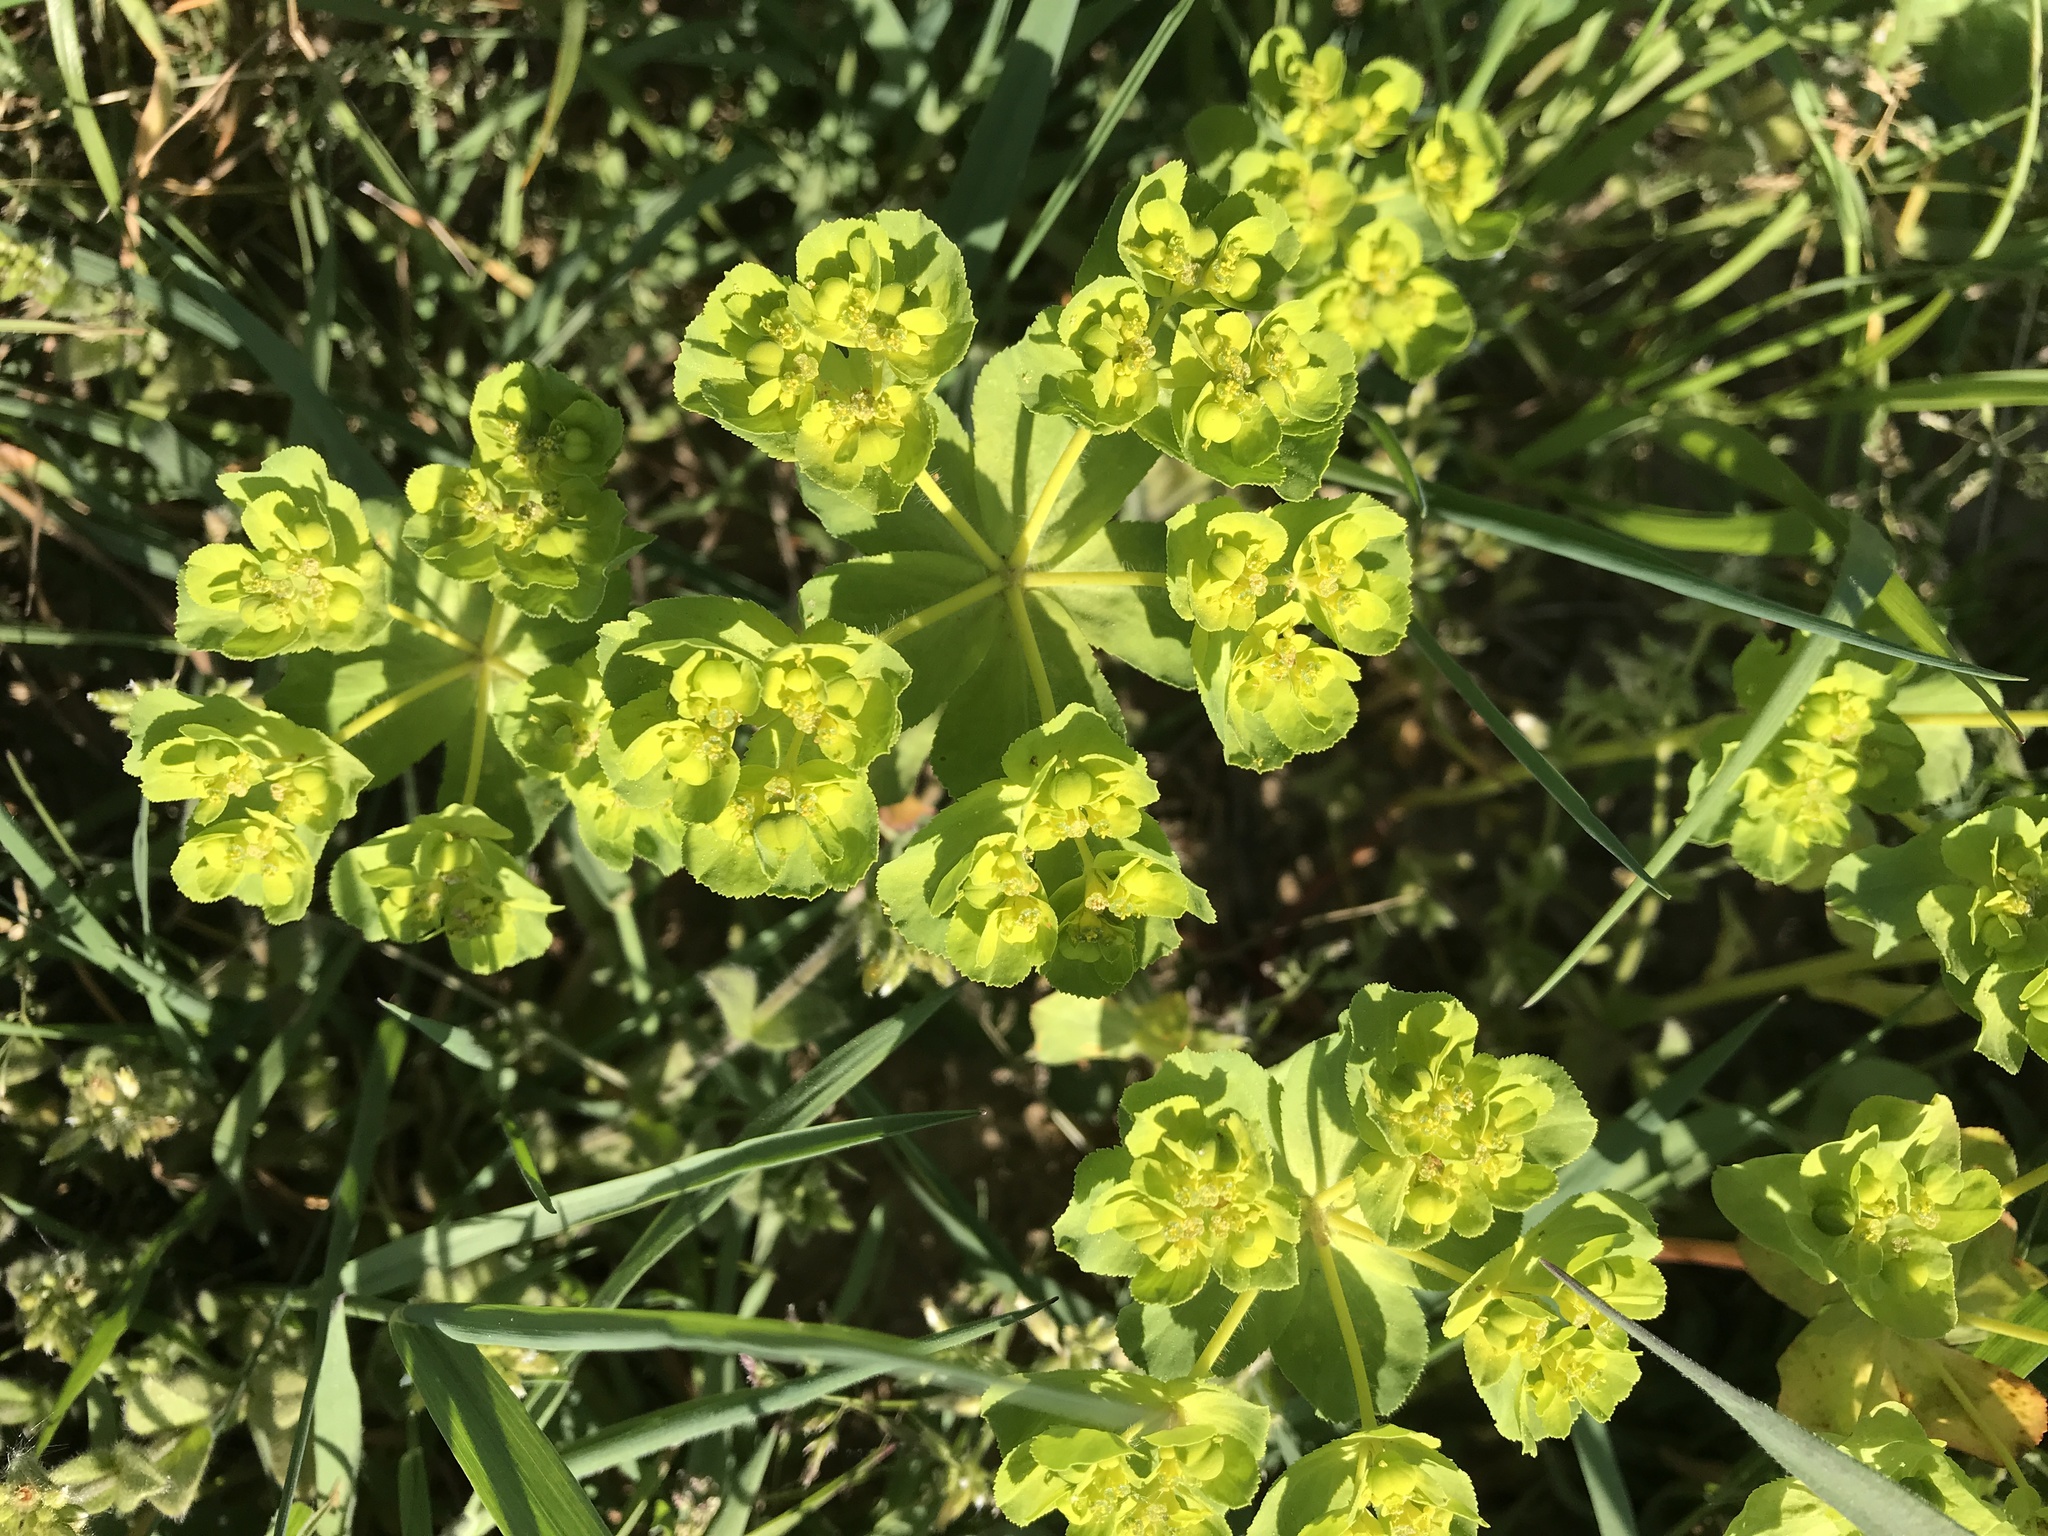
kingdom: Plantae
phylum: Tracheophyta
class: Magnoliopsida
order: Malpighiales
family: Euphorbiaceae
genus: Euphorbia
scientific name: Euphorbia helioscopia
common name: Sun spurge
